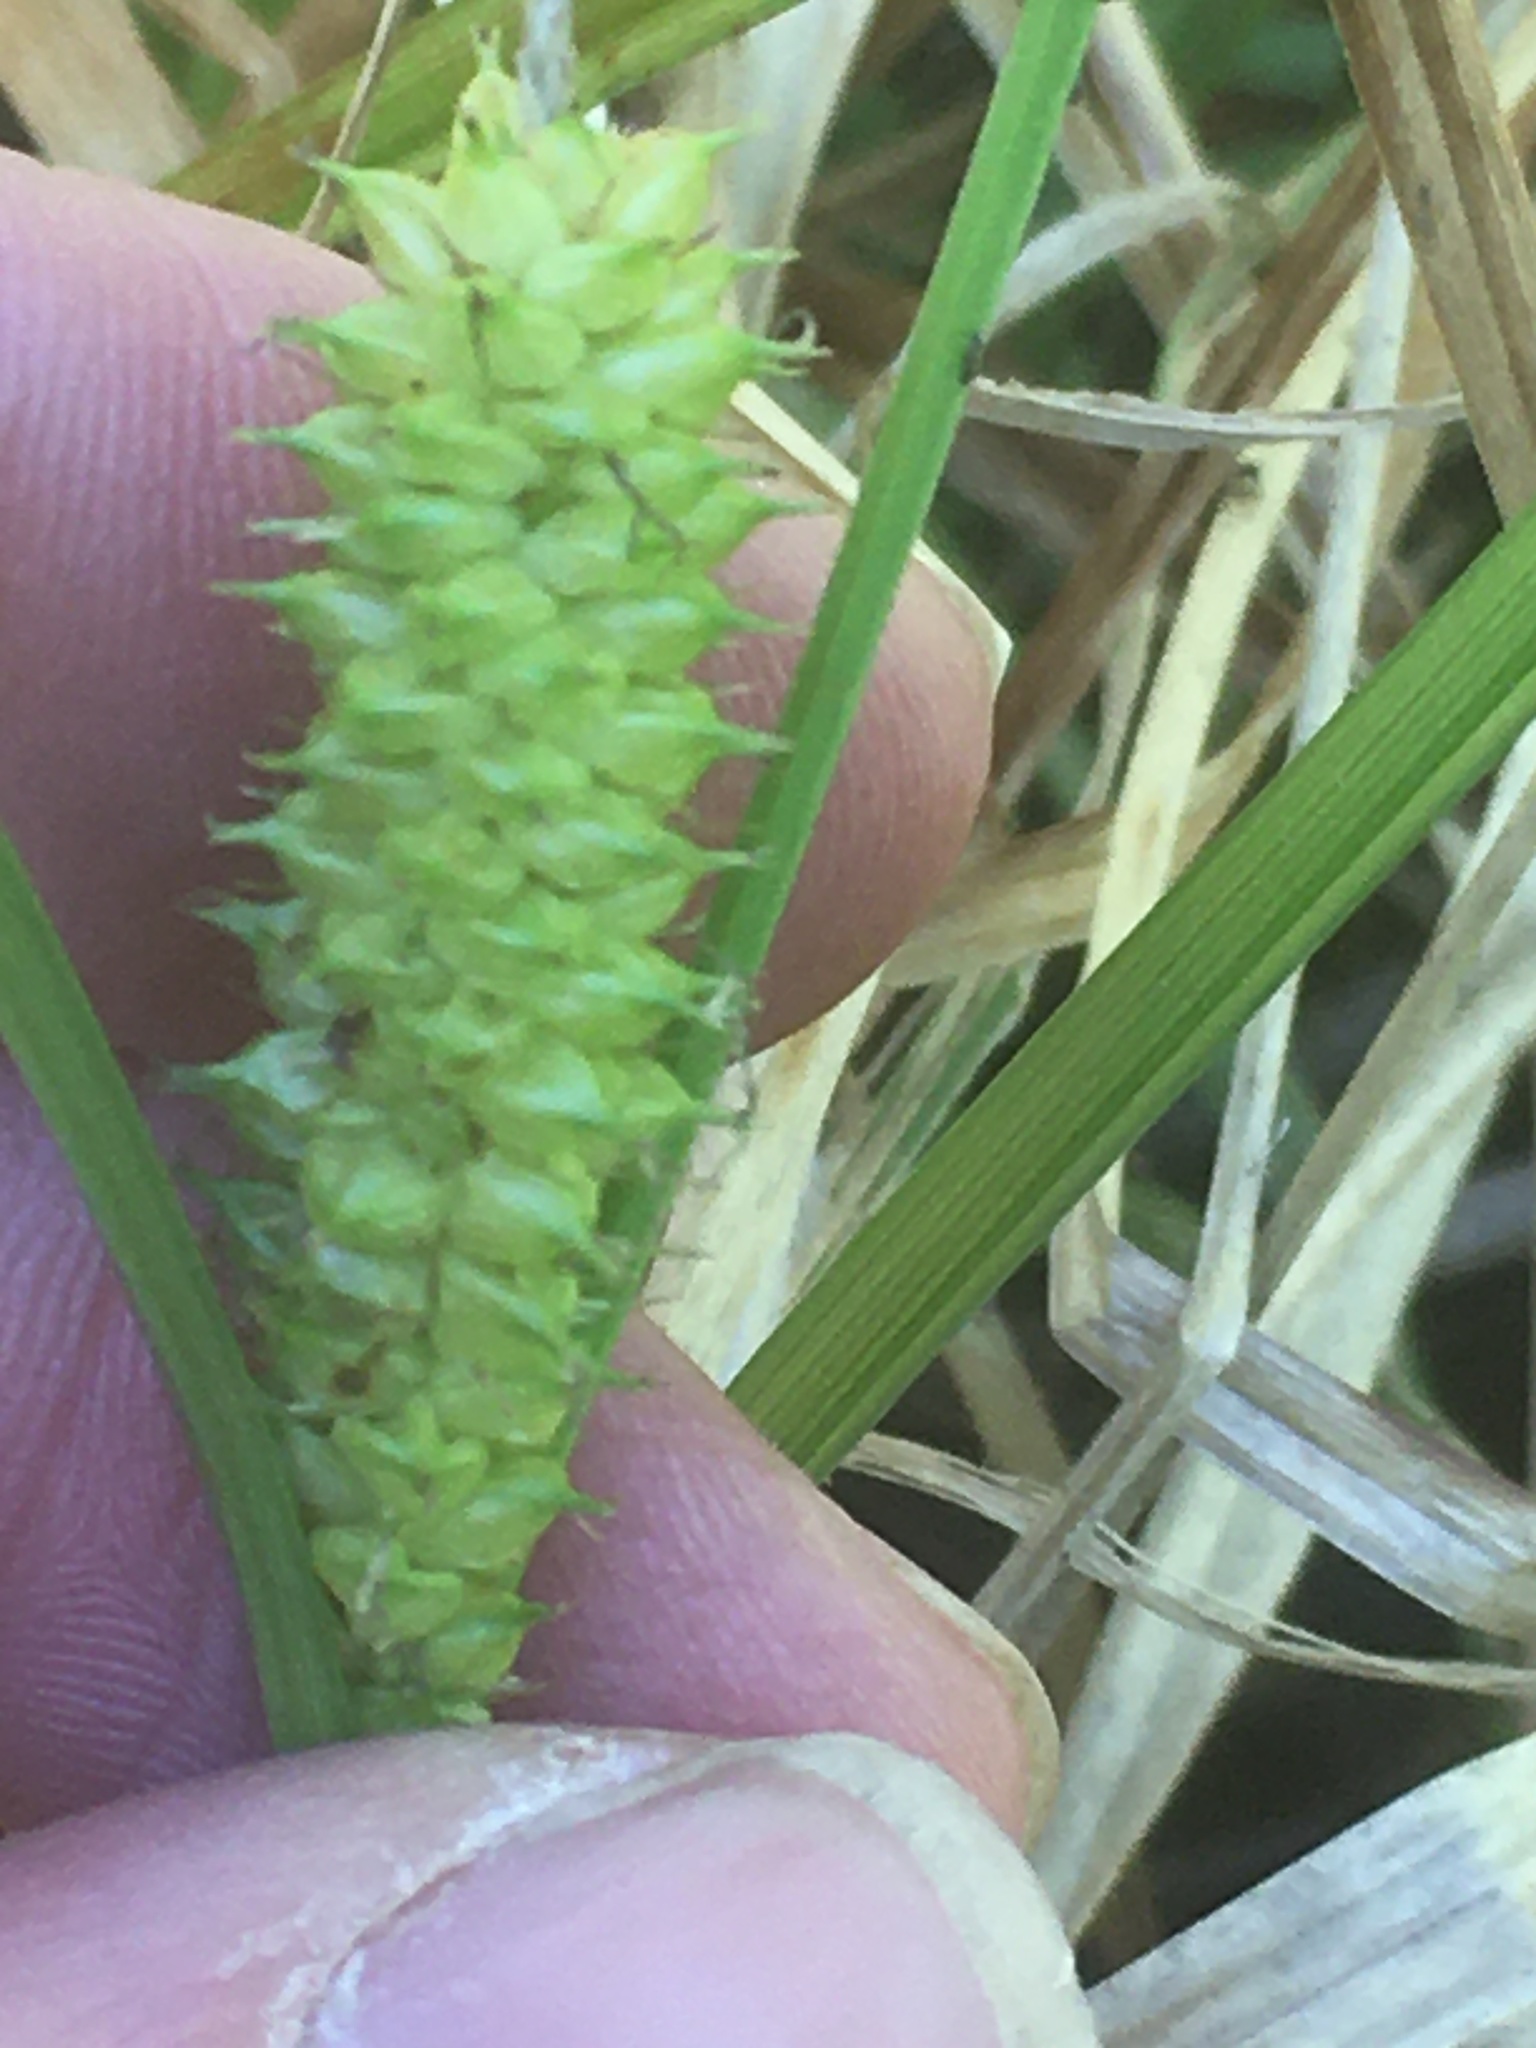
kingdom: Plantae
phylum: Tracheophyta
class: Liliopsida
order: Poales
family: Cyperaceae
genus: Carex
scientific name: Carex utriculata
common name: Beaked sedge
